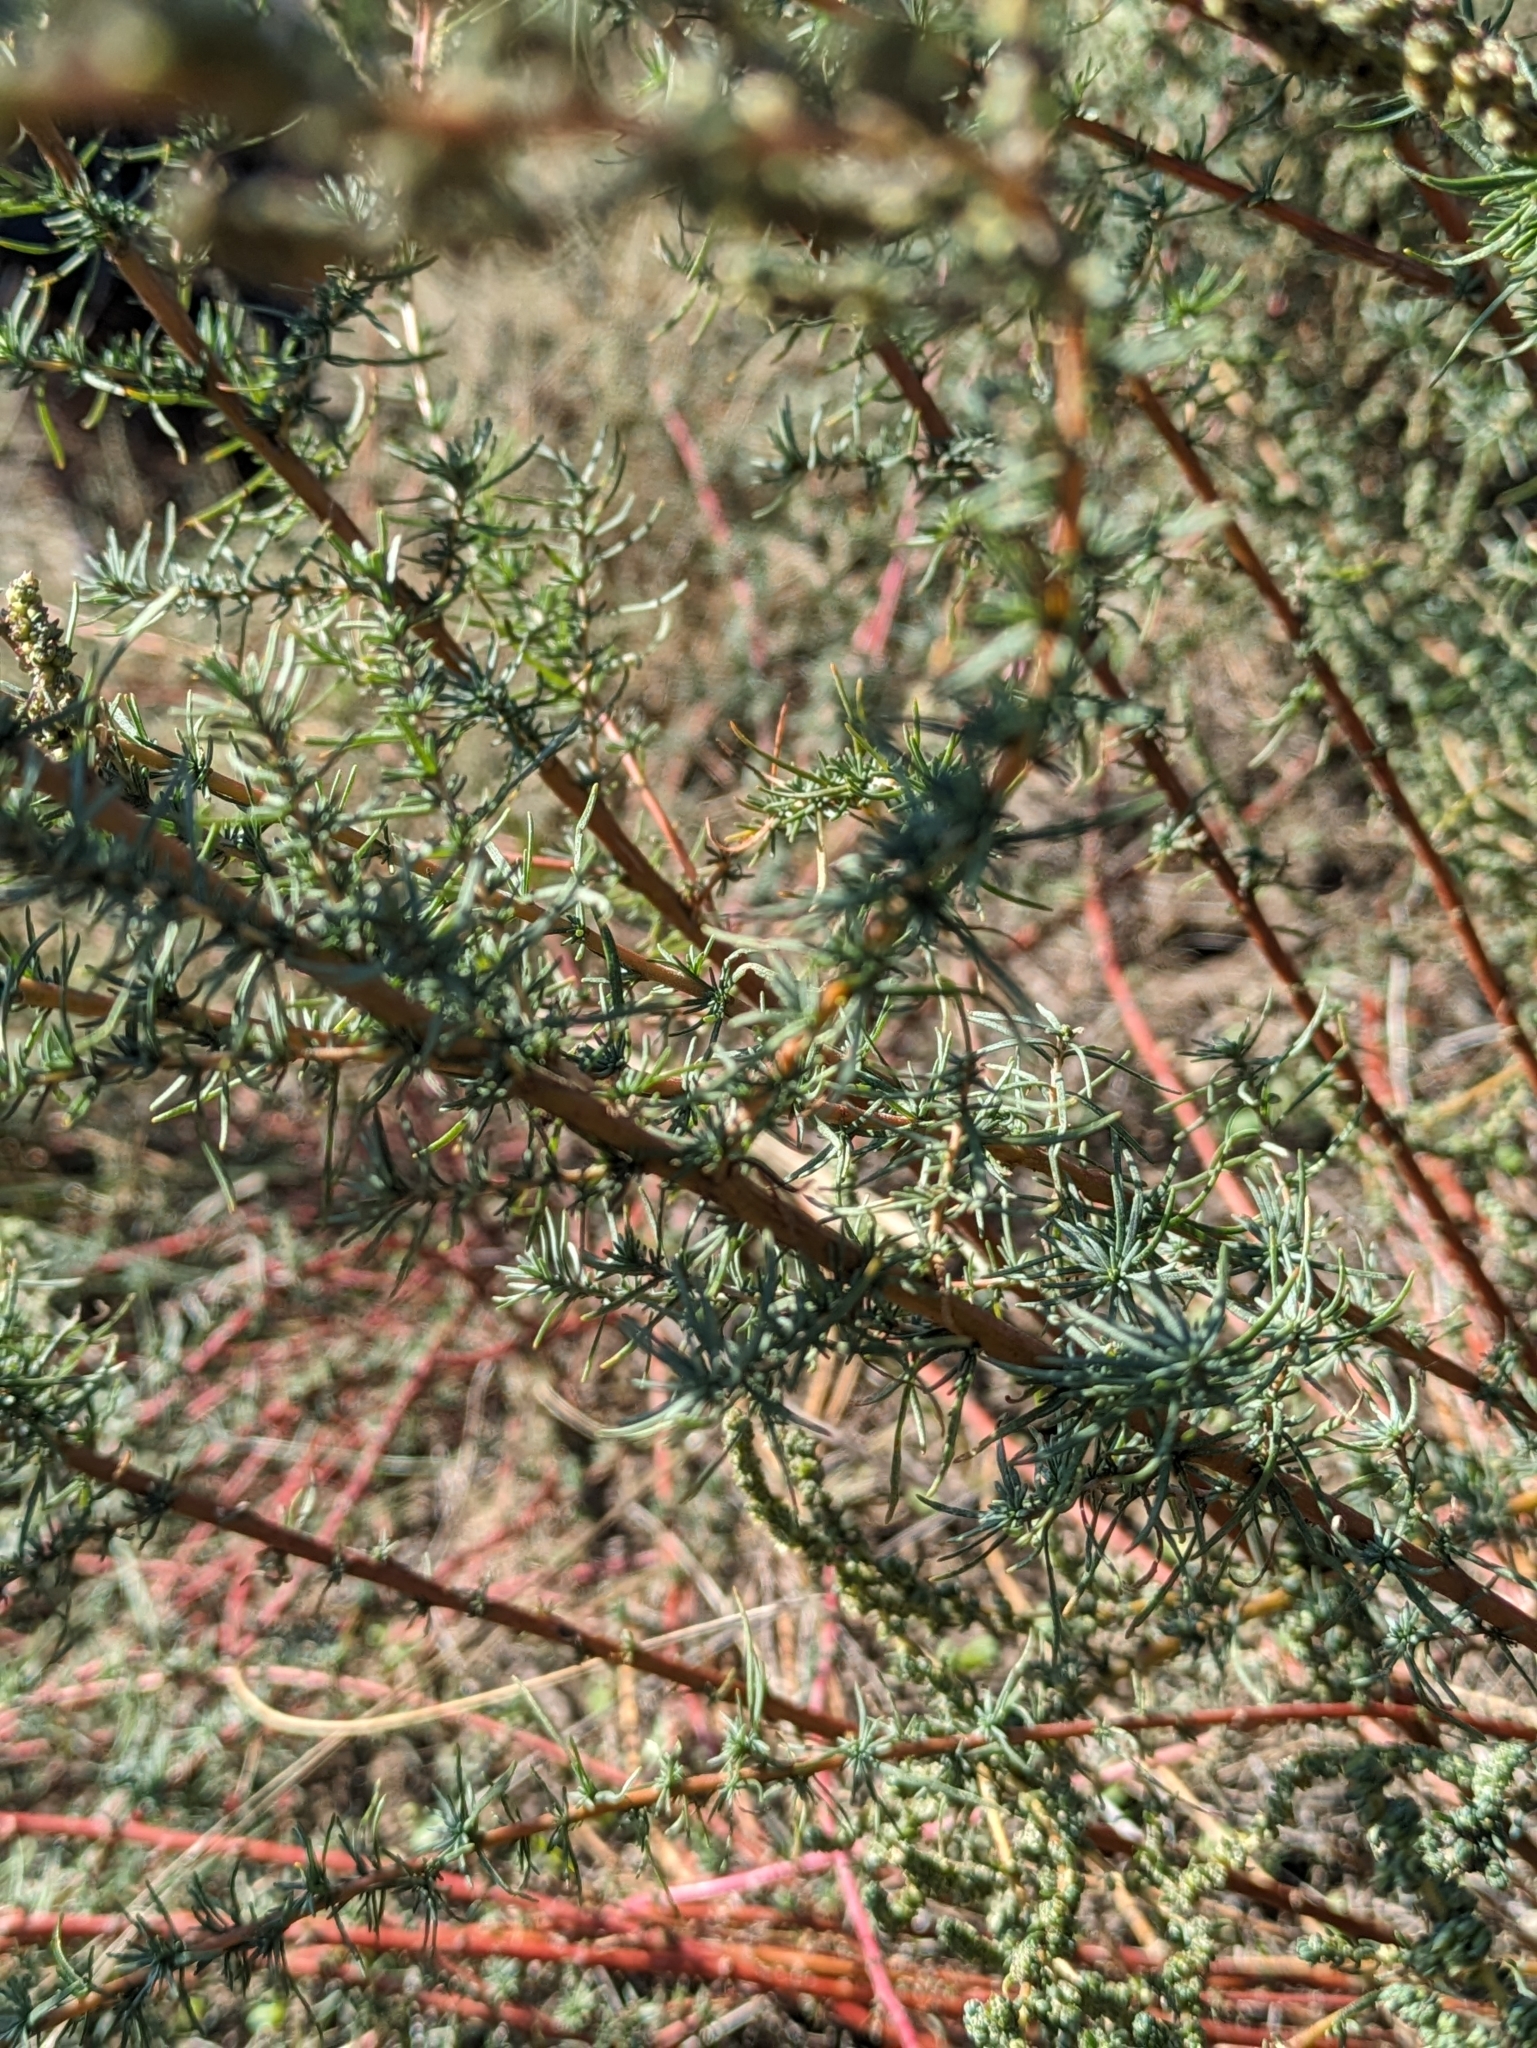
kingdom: Plantae
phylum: Tracheophyta
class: Magnoliopsida
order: Caryophyllales
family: Amaranthaceae
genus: Bassia
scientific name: Bassia prostrata
